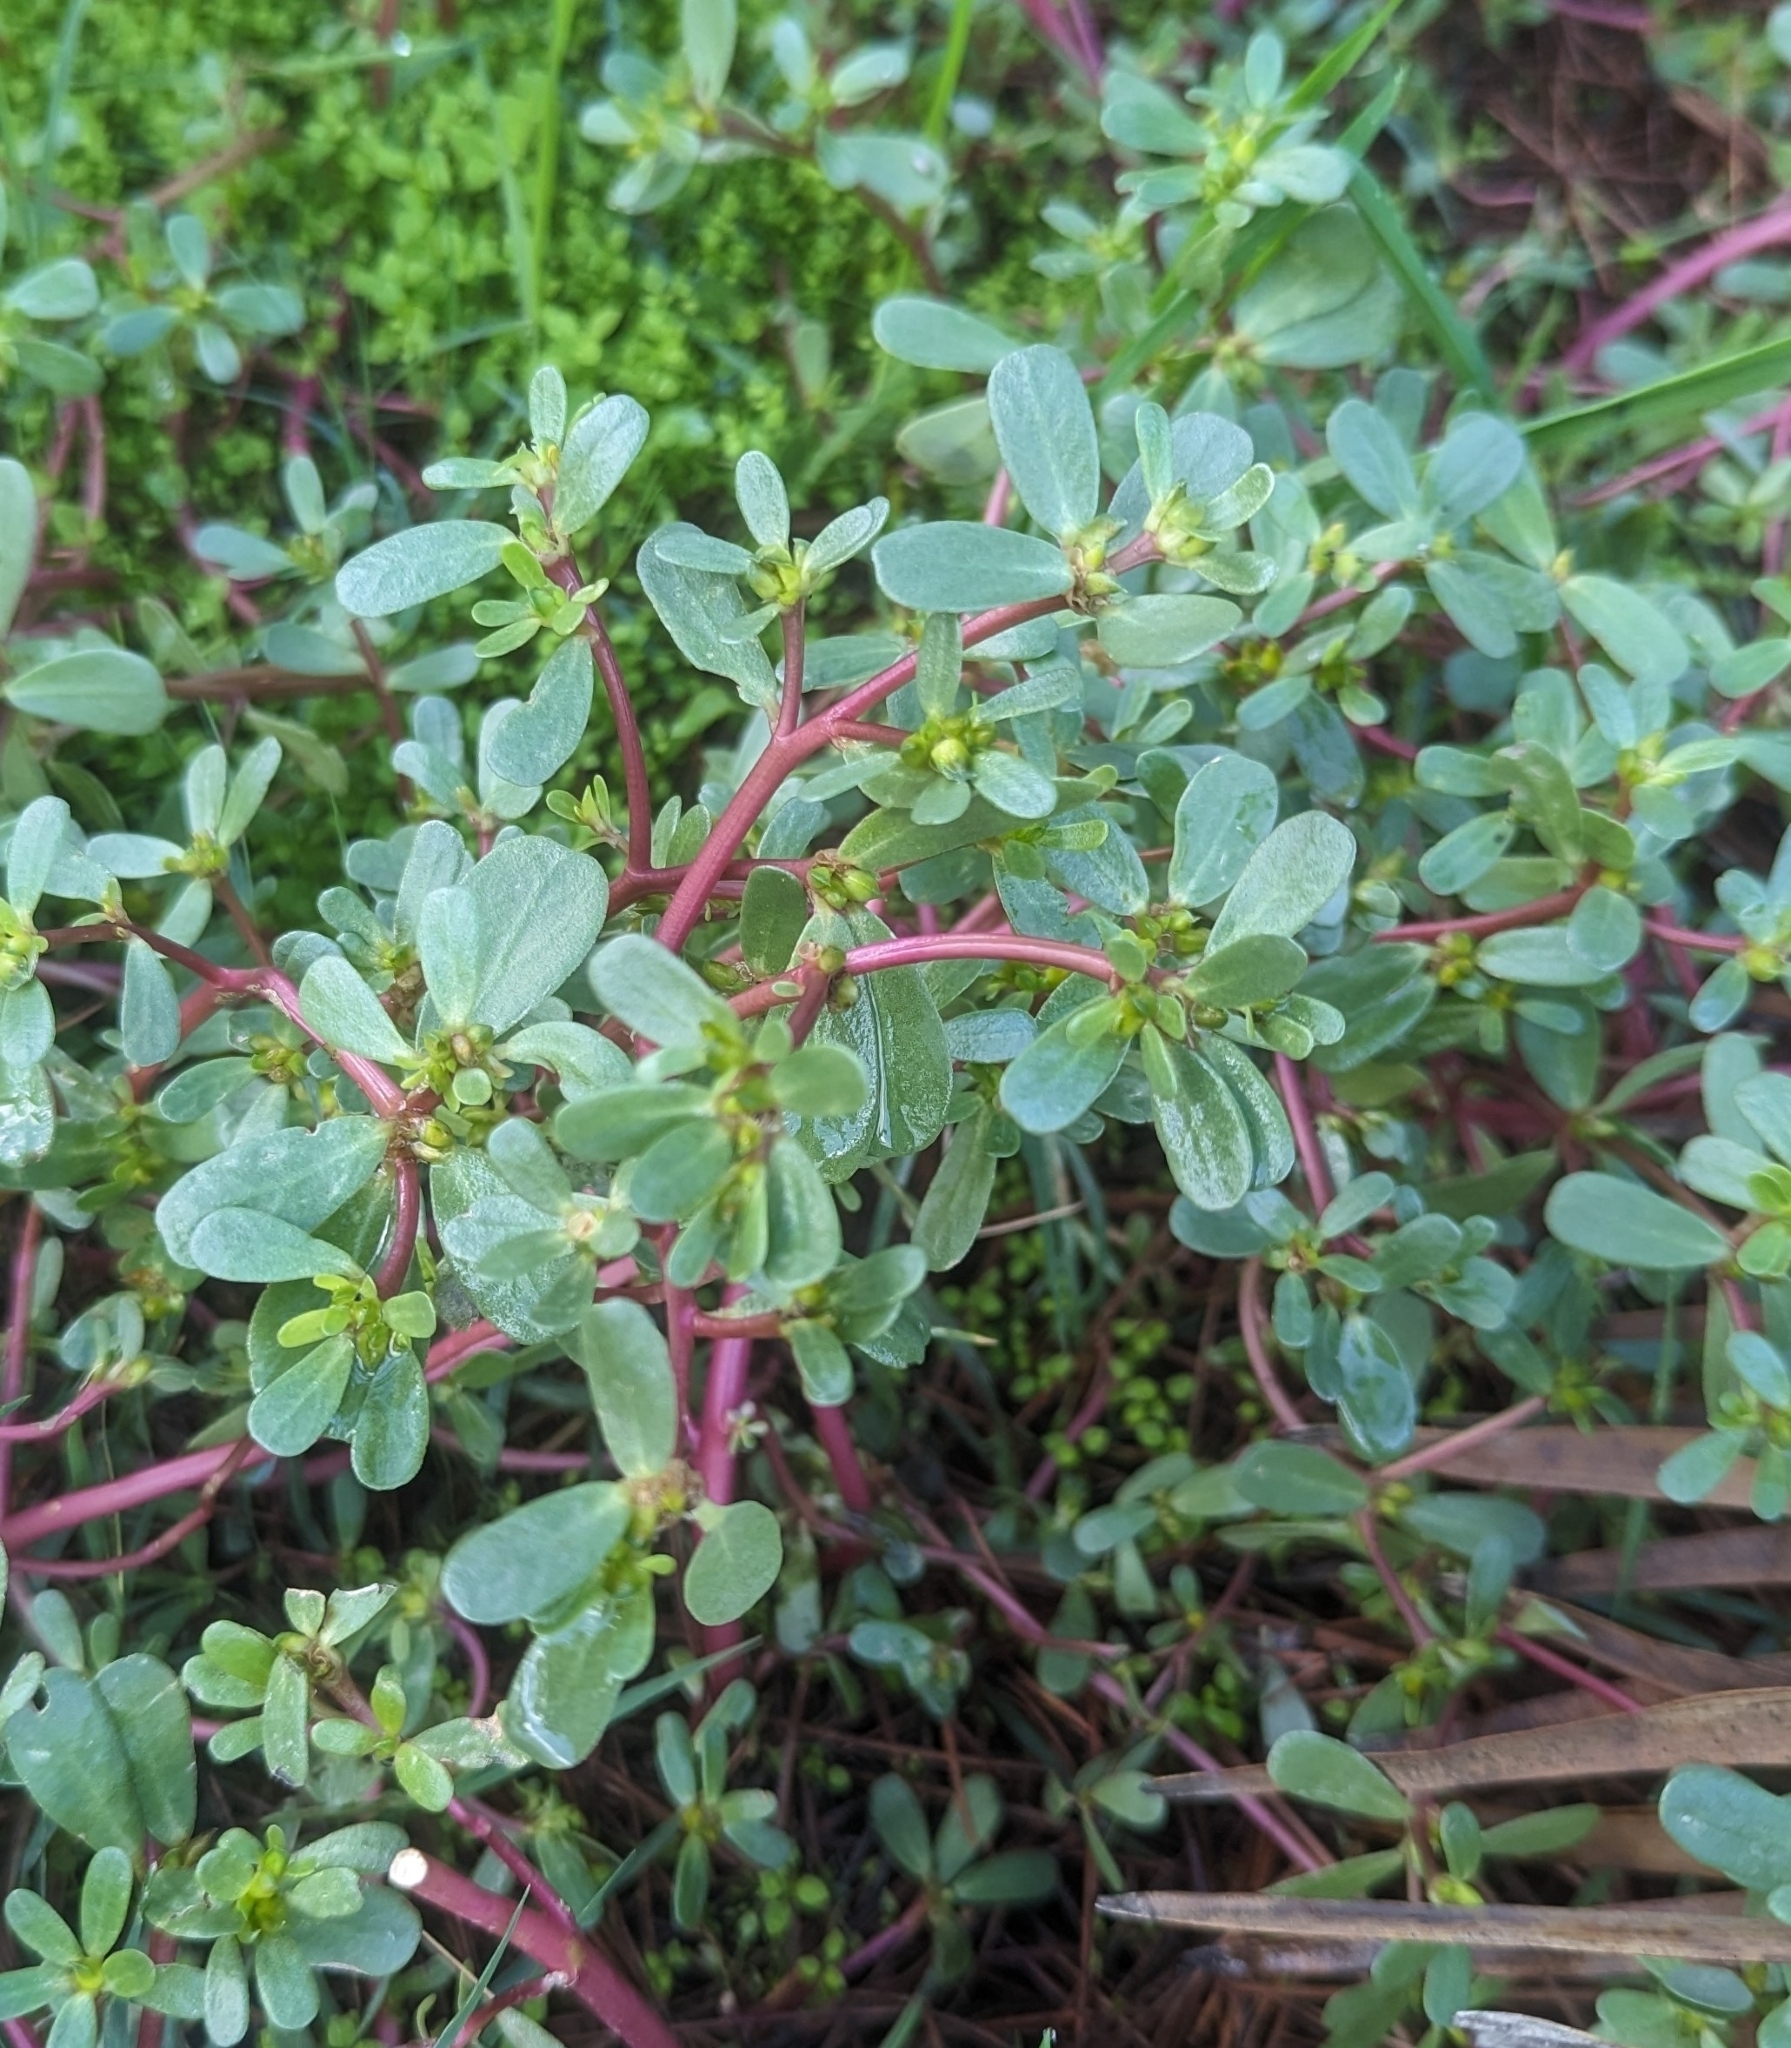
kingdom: Plantae
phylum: Tracheophyta
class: Magnoliopsida
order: Caryophyllales
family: Portulacaceae
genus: Portulaca
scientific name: Portulaca oleracea
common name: Common purslane
